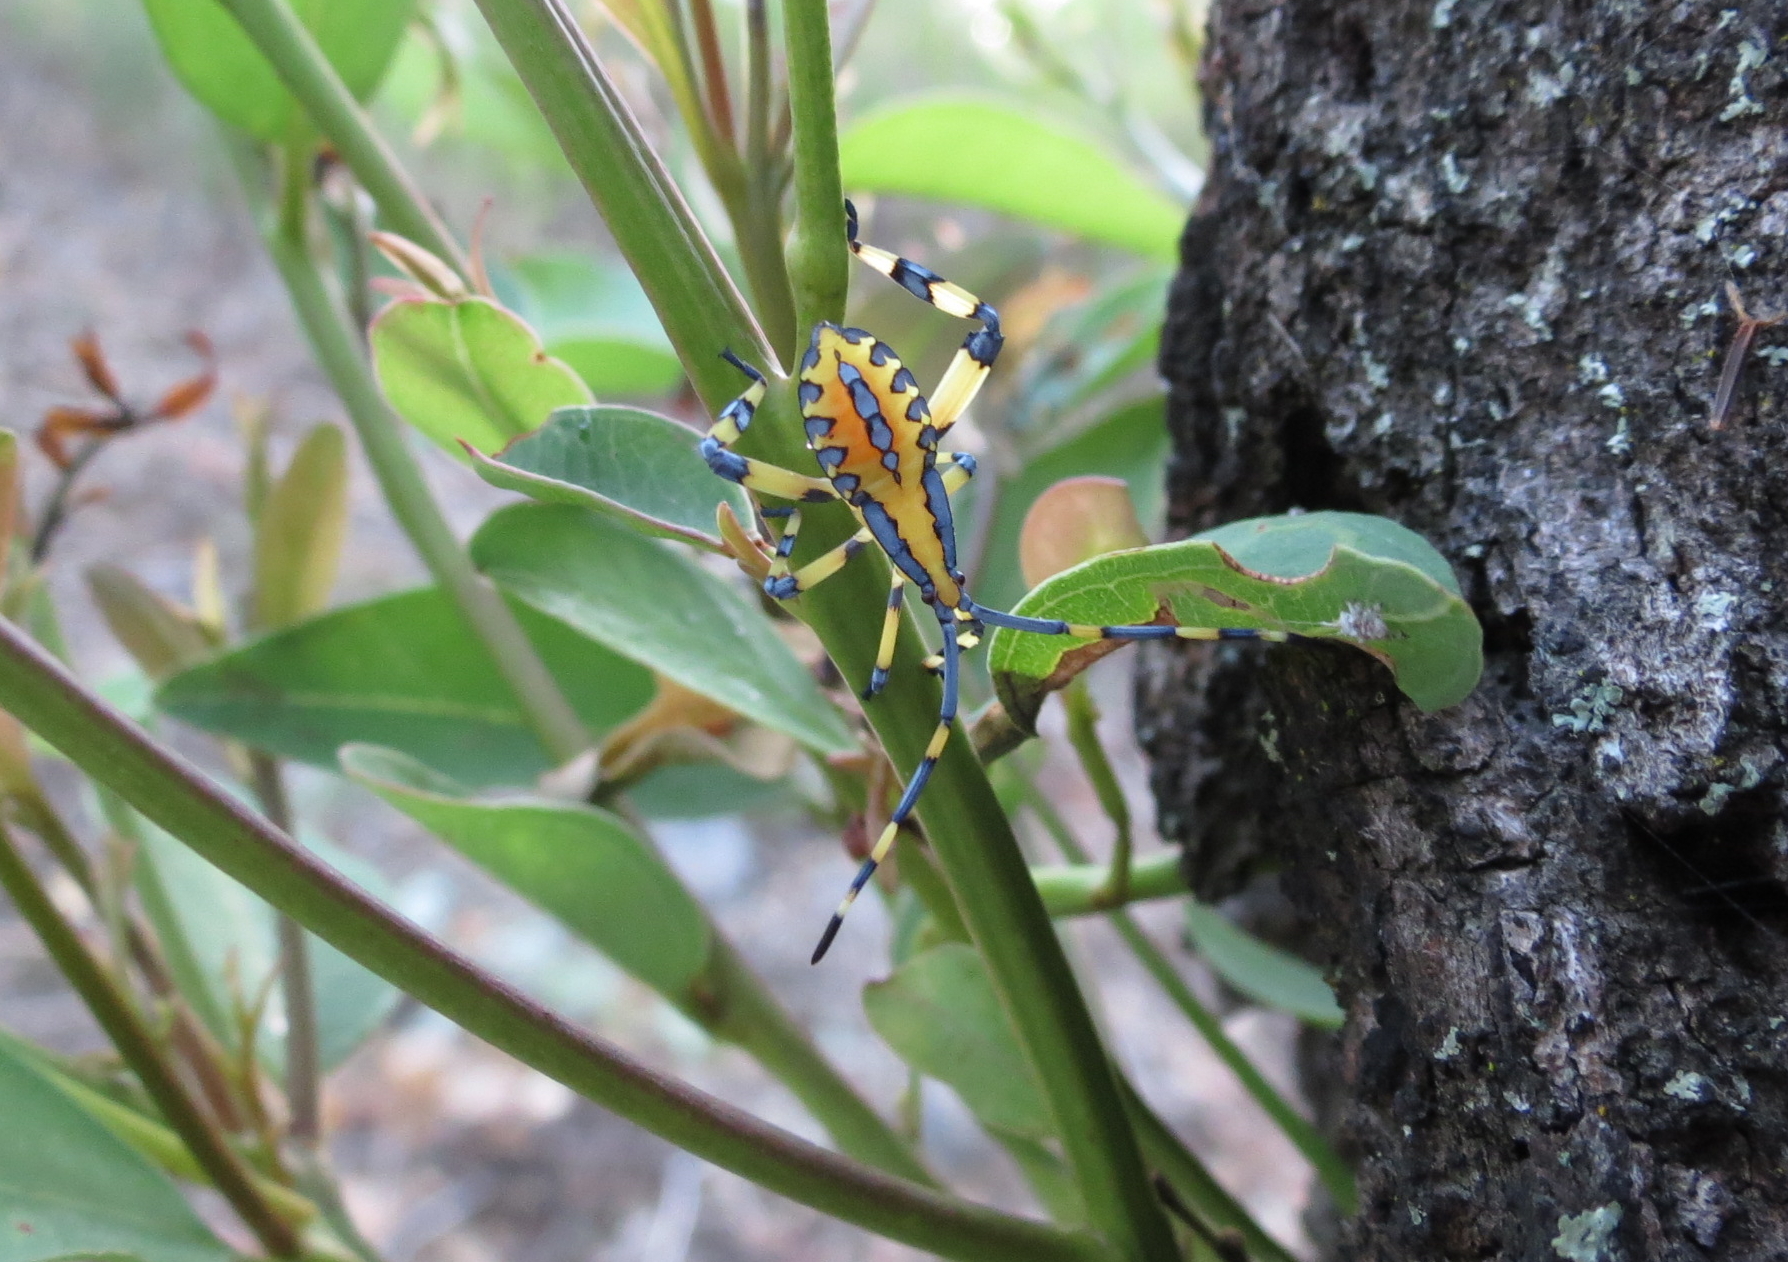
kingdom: Animalia
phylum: Arthropoda
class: Insecta
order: Hemiptera
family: Coreidae
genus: Amorbus
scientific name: Amorbus atomarius
